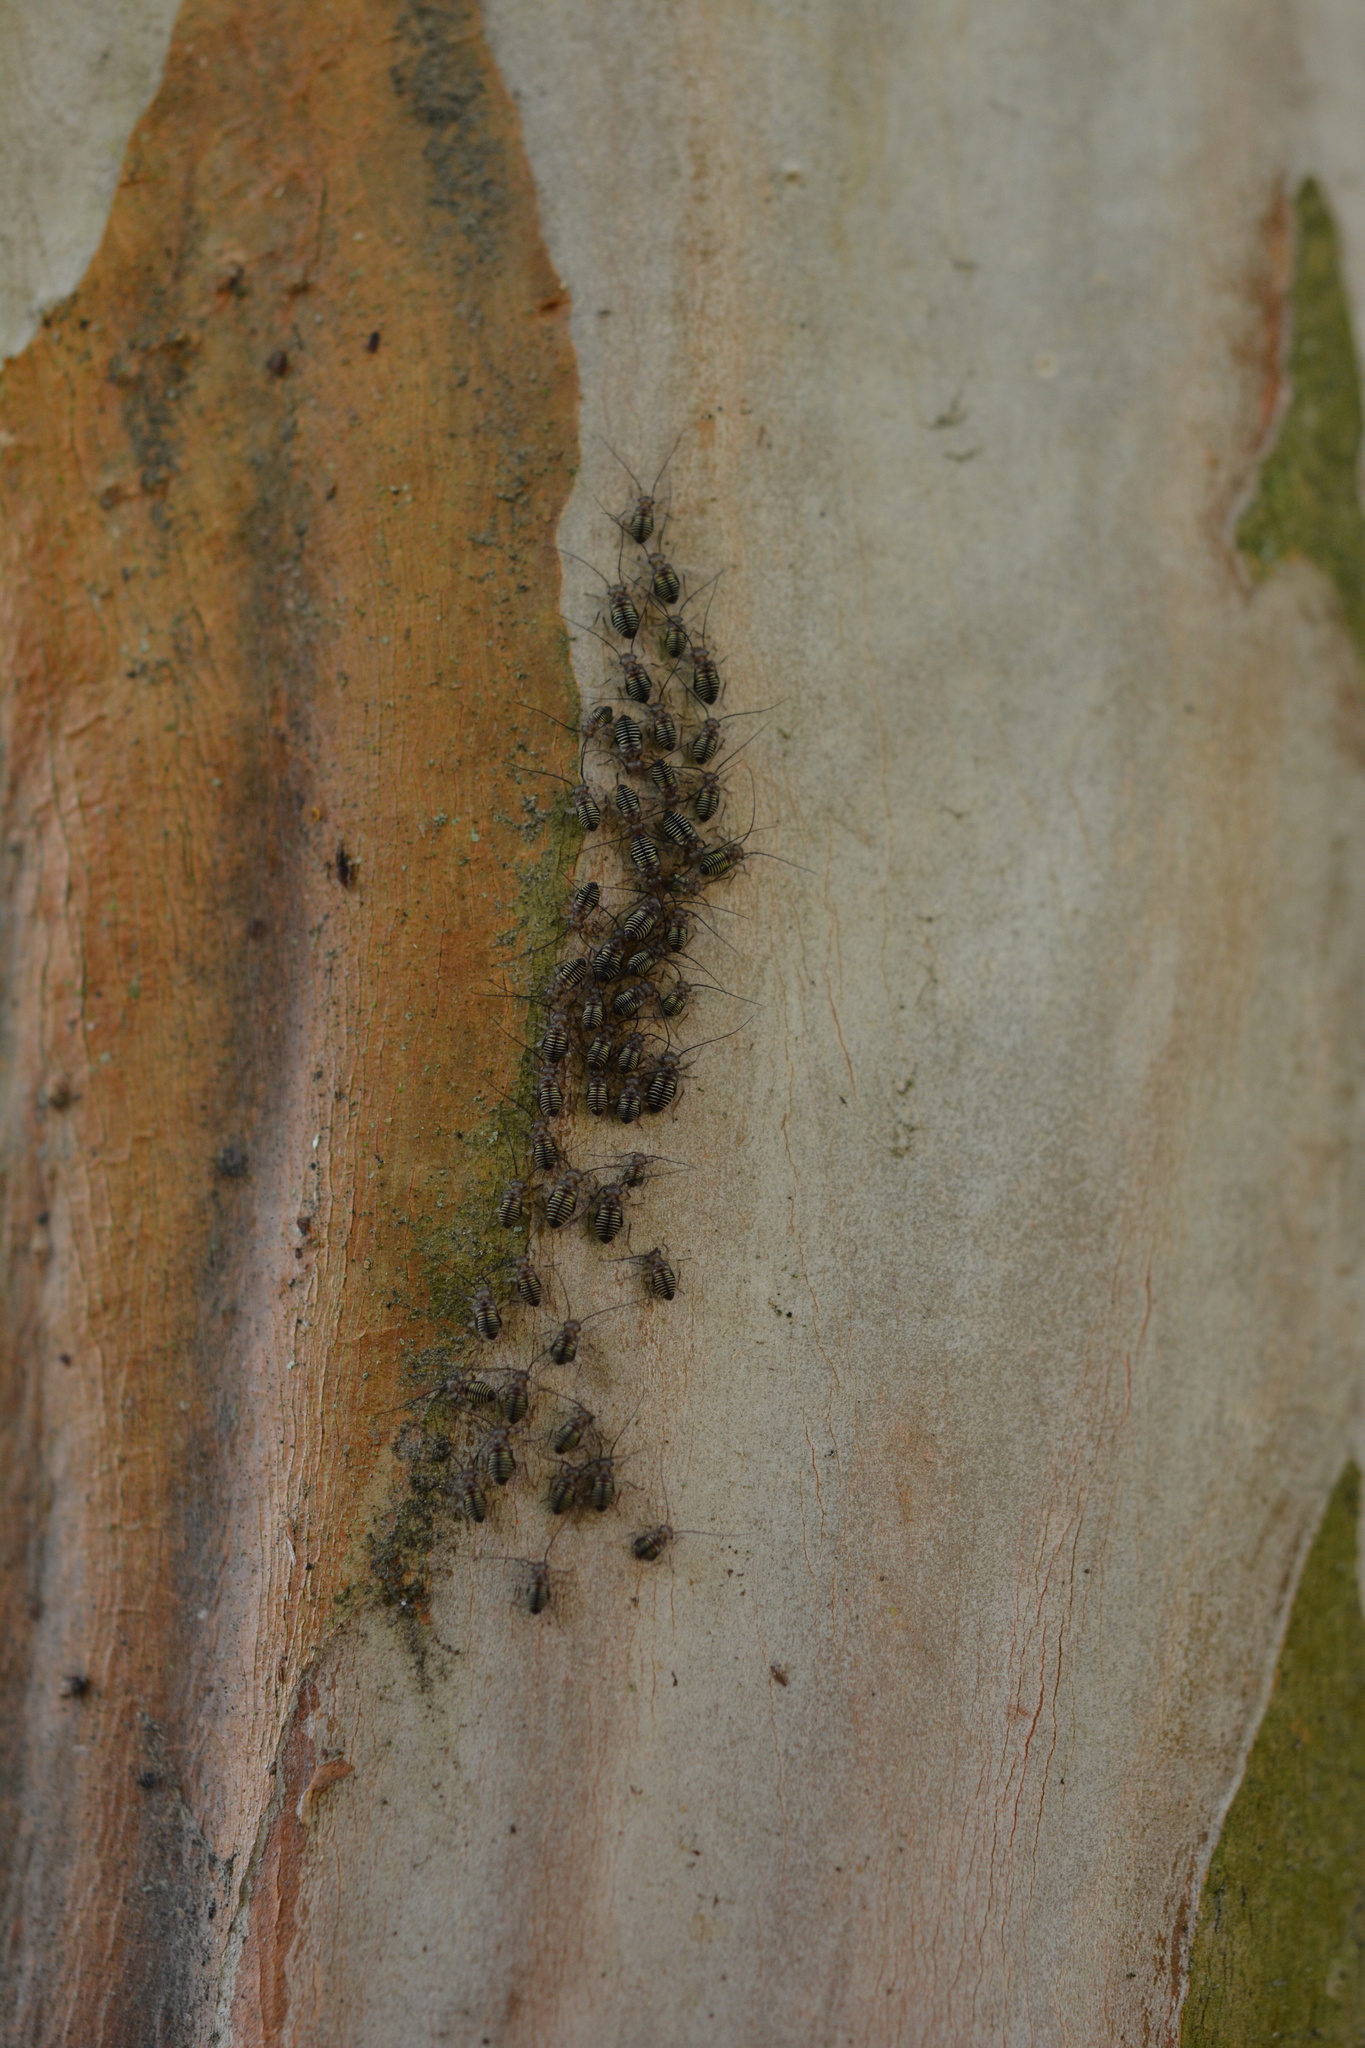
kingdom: Animalia
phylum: Arthropoda
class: Insecta
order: Psocodea
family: Psocidae
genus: Cerastipsocus
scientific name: Cerastipsocus venosus
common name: Tree cattle
